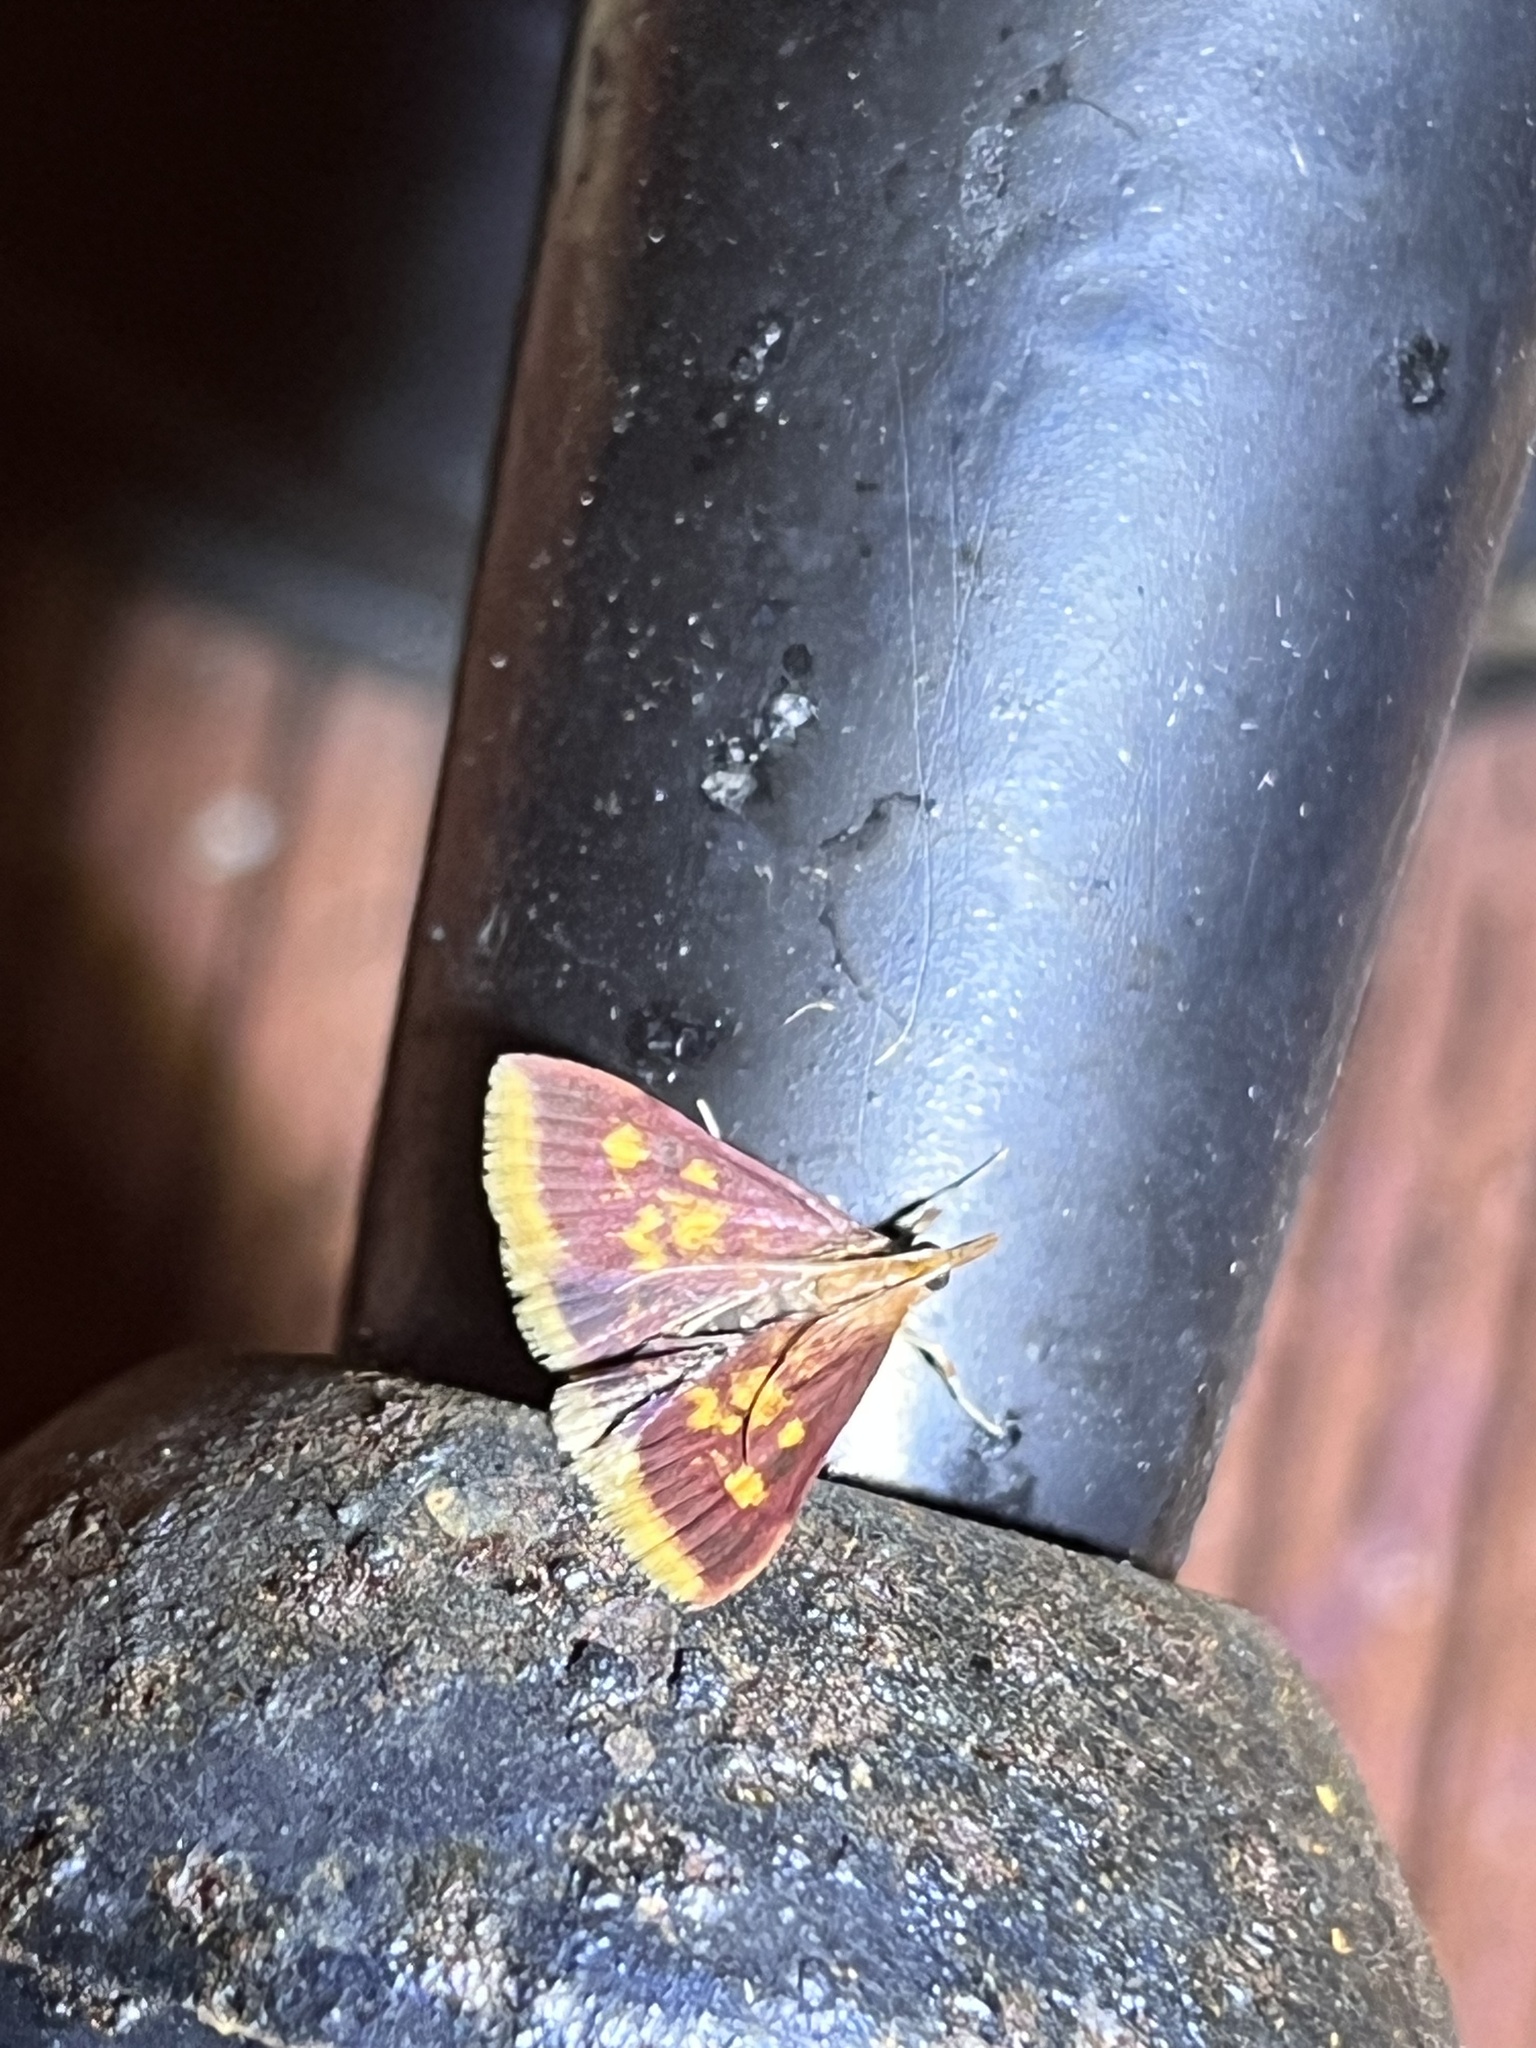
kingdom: Animalia
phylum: Arthropoda
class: Insecta
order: Lepidoptera
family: Crambidae
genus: Pyrausta
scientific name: Pyrausta acrionalis
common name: Mint-loving pyrausta moth
